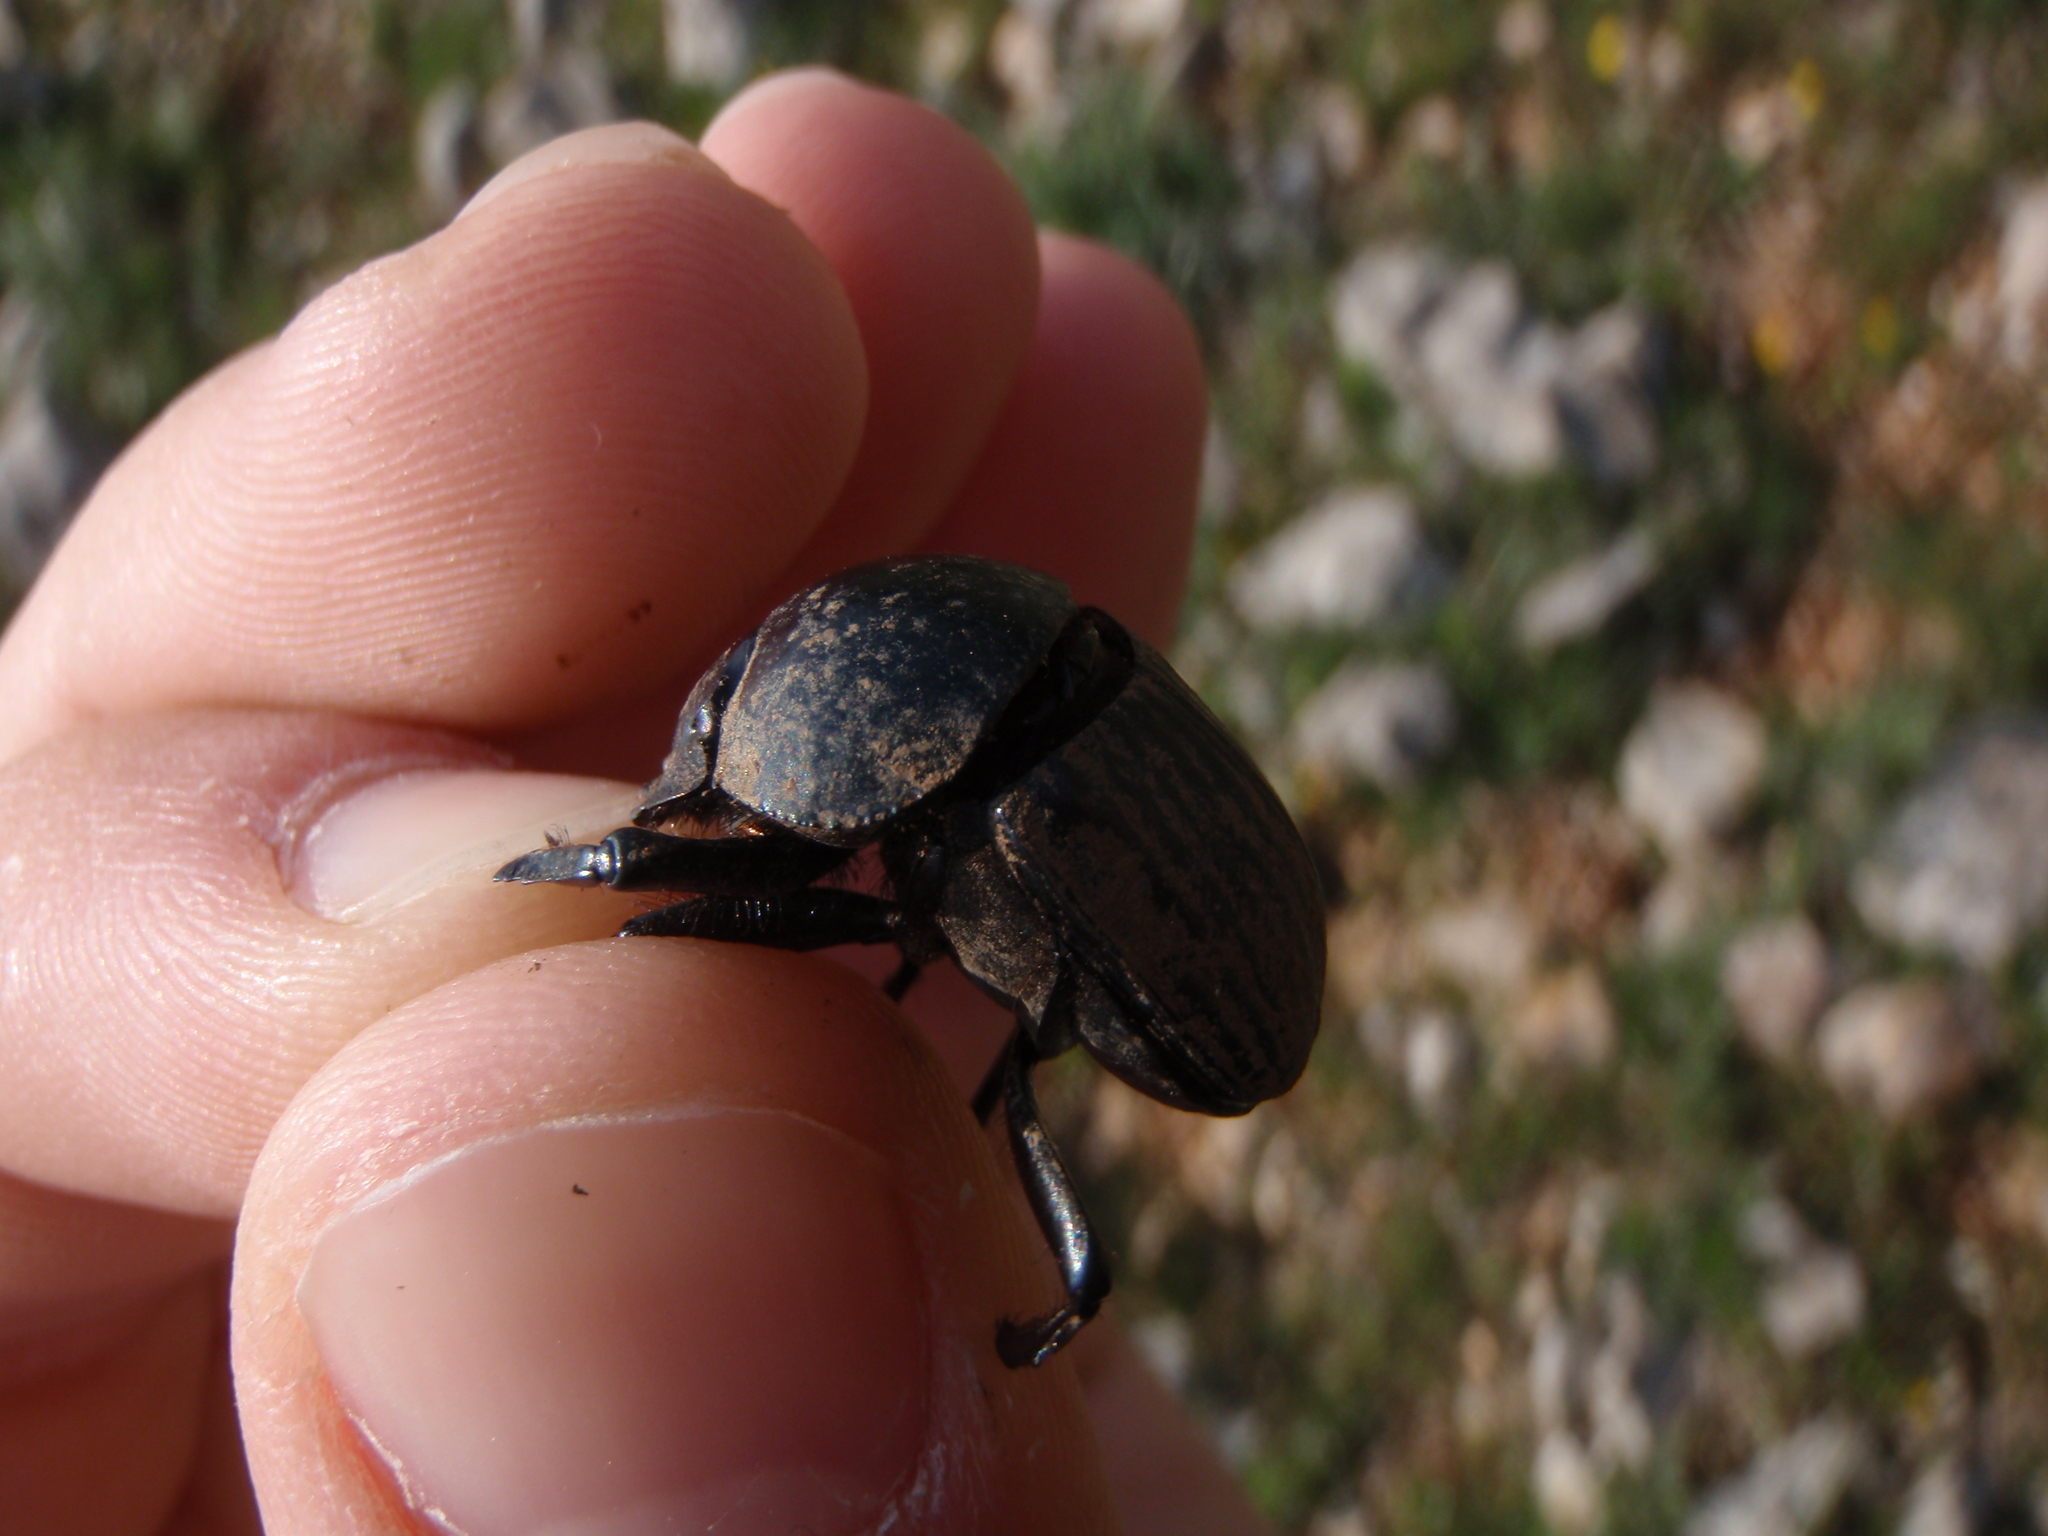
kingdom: Animalia
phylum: Arthropoda
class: Insecta
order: Coleoptera
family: Scarabaeidae
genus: Ateuchetus
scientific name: Ateuchetus laticollis
